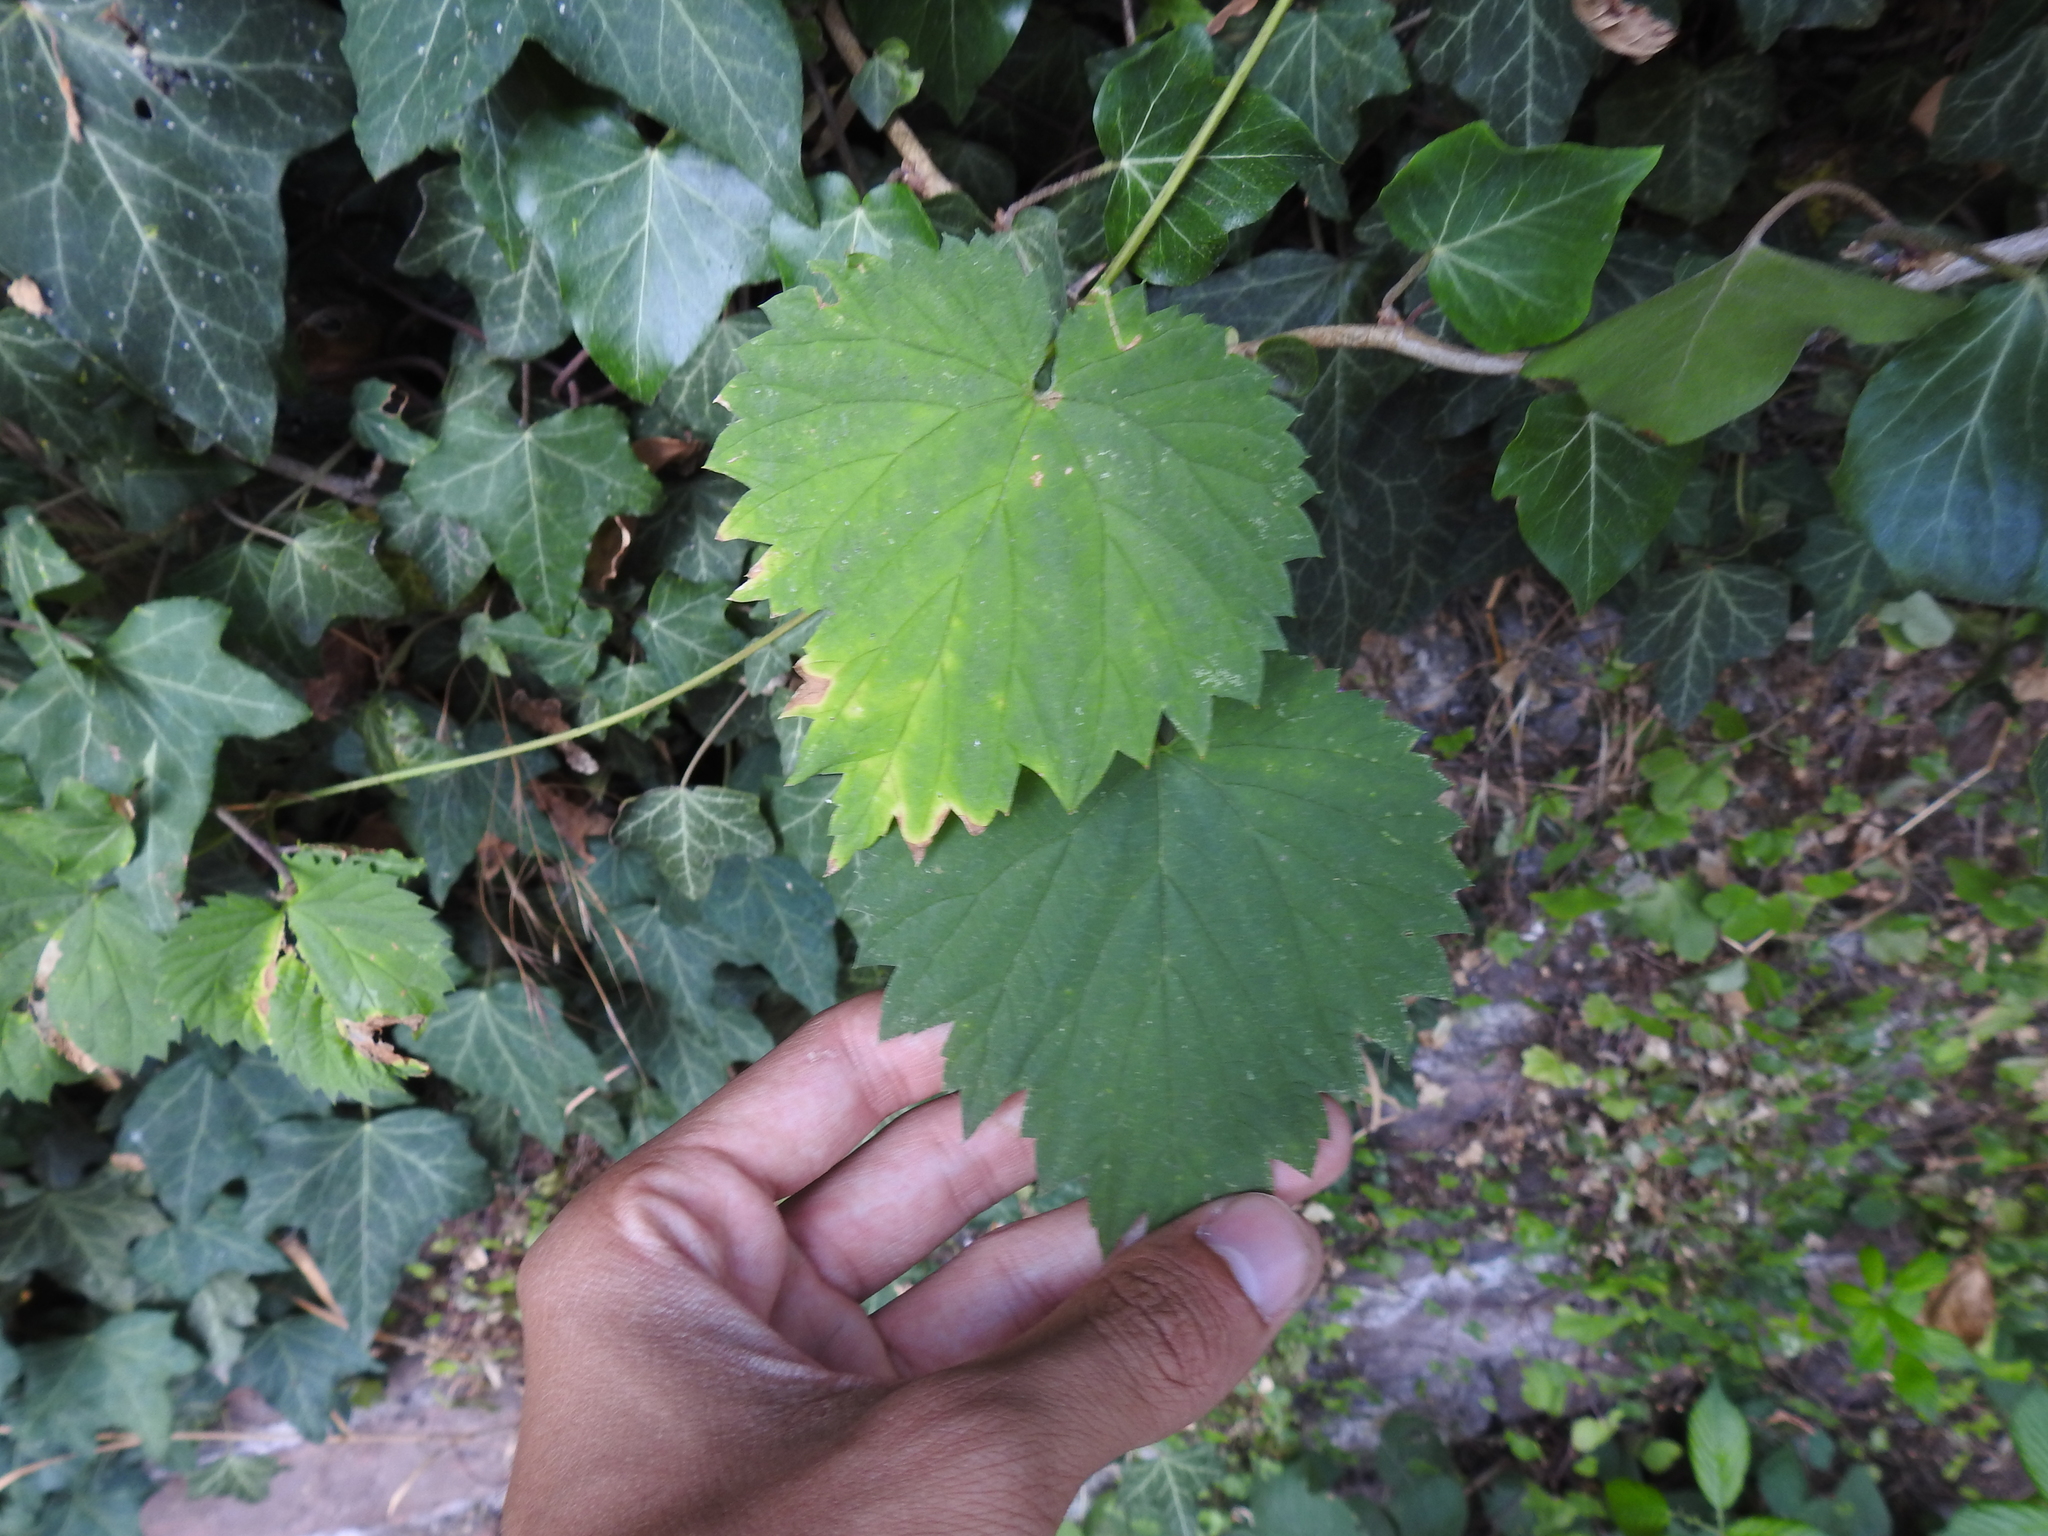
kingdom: Plantae
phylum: Tracheophyta
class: Magnoliopsida
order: Rosales
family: Cannabaceae
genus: Humulus
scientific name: Humulus lupulus
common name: Hop
